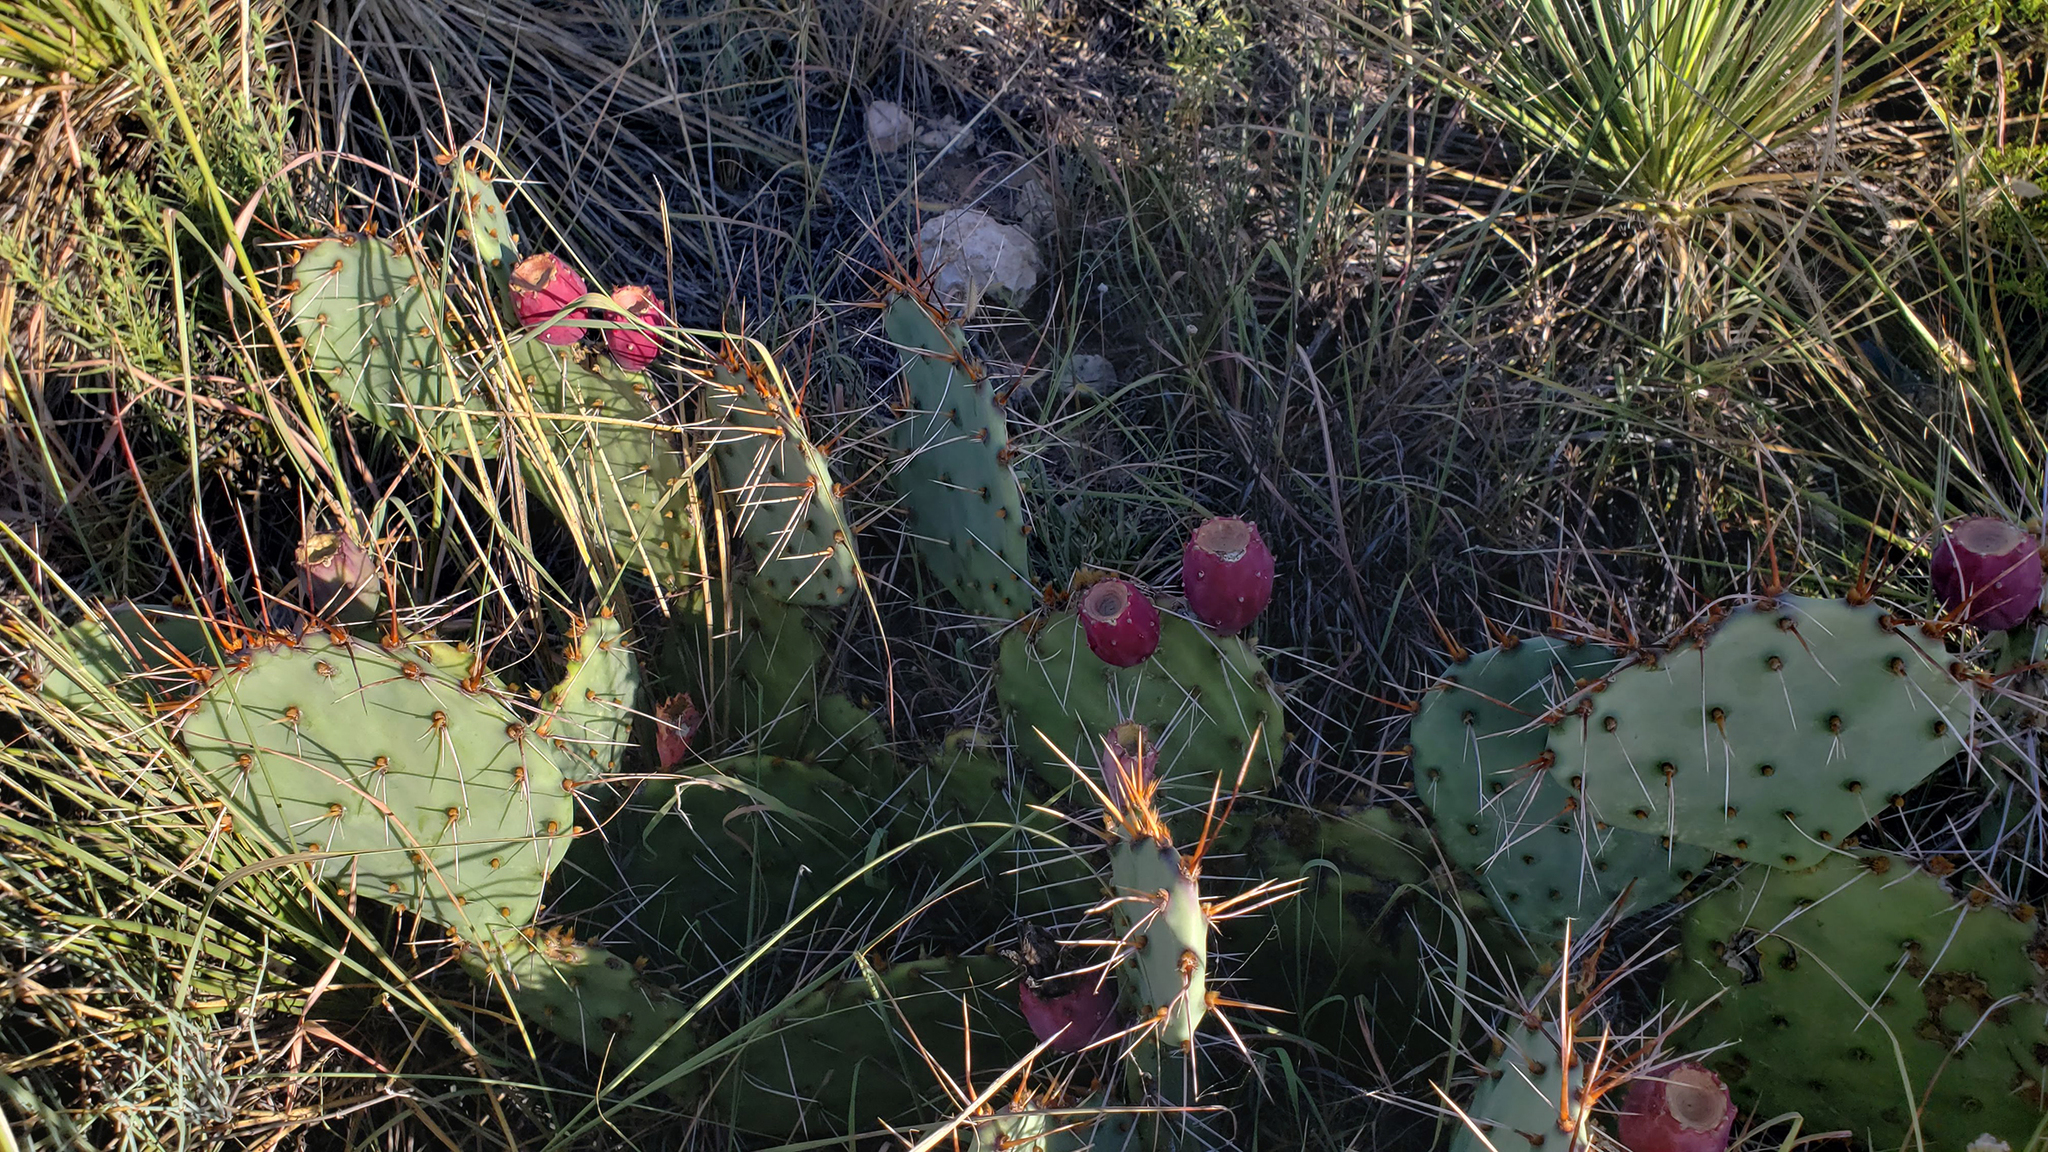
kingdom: Plantae
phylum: Tracheophyta
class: Magnoliopsida
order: Caryophyllales
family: Cactaceae
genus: Opuntia
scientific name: Opuntia phaeacantha
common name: New mexico prickly-pear
